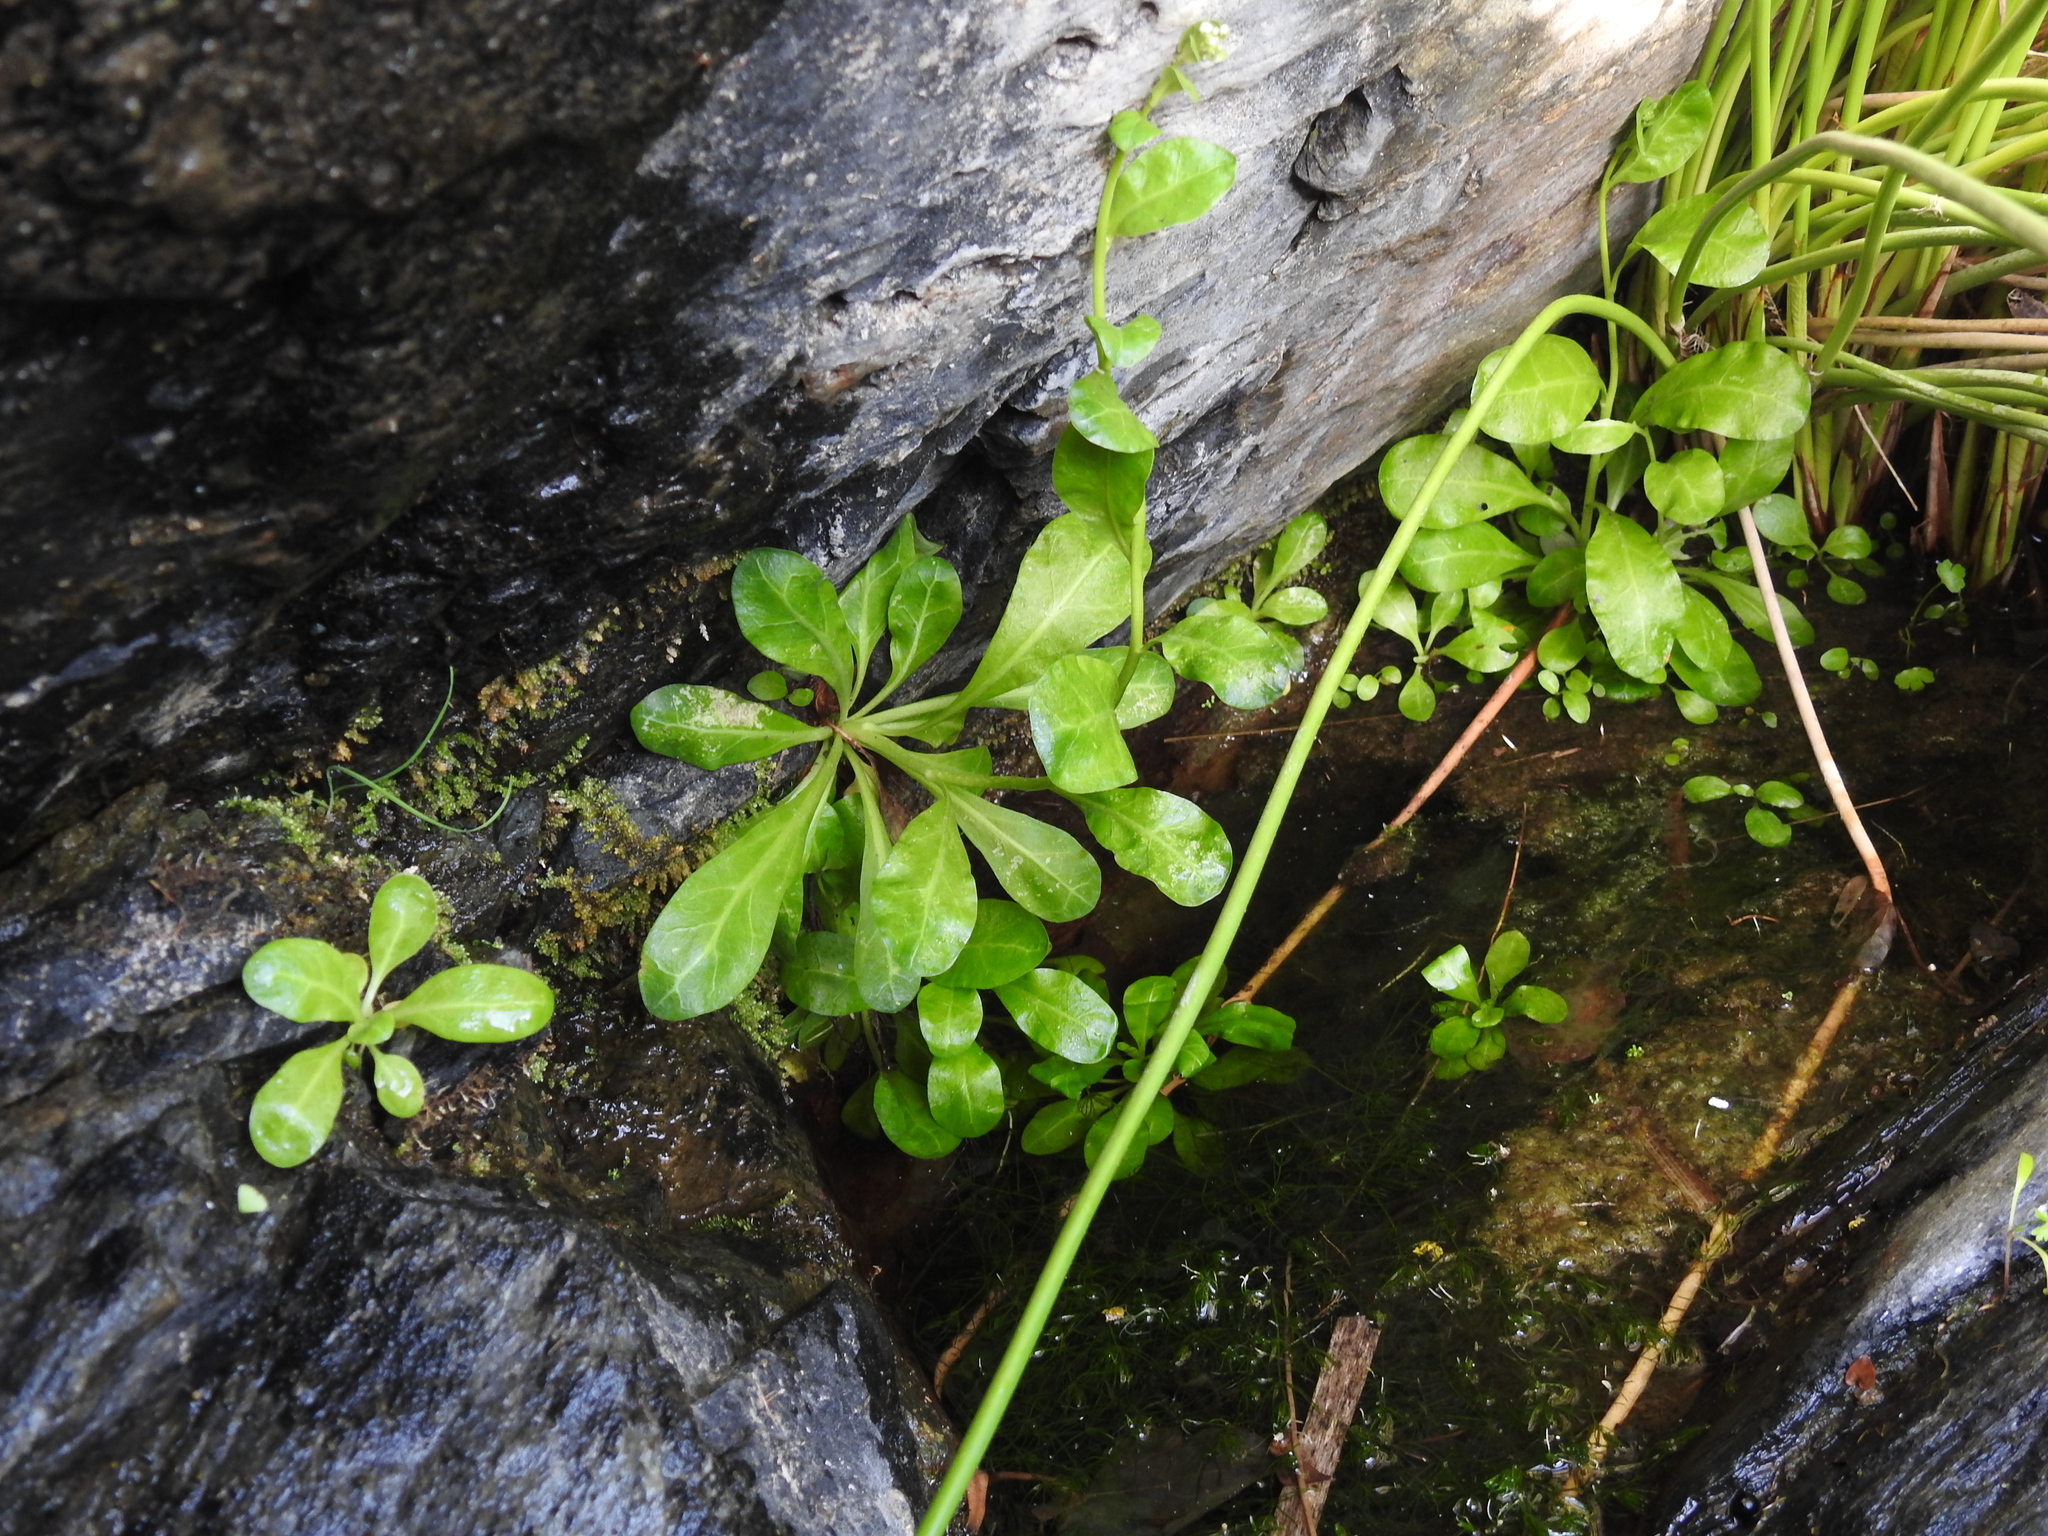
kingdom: Plantae
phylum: Tracheophyta
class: Magnoliopsida
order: Ericales
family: Primulaceae
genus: Samolus
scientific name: Samolus valerandi
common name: Brookweed
